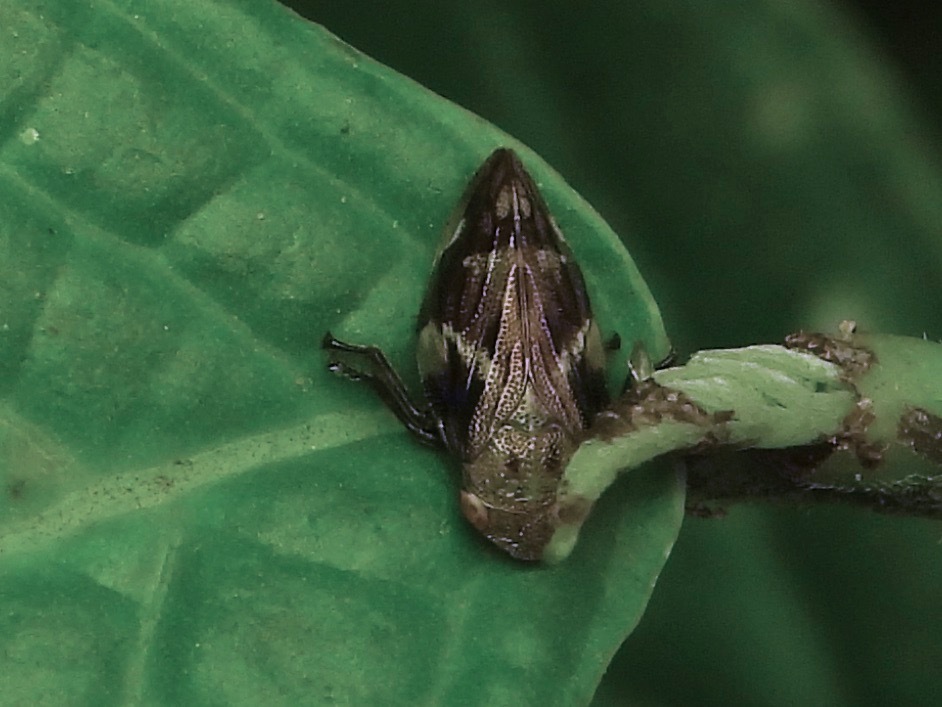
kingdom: Animalia
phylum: Arthropoda
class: Insecta
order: Hemiptera
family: Aphrophoridae
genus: Aphrophora
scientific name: Aphrophora quadrinotata
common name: Four-spotted spittlebug
